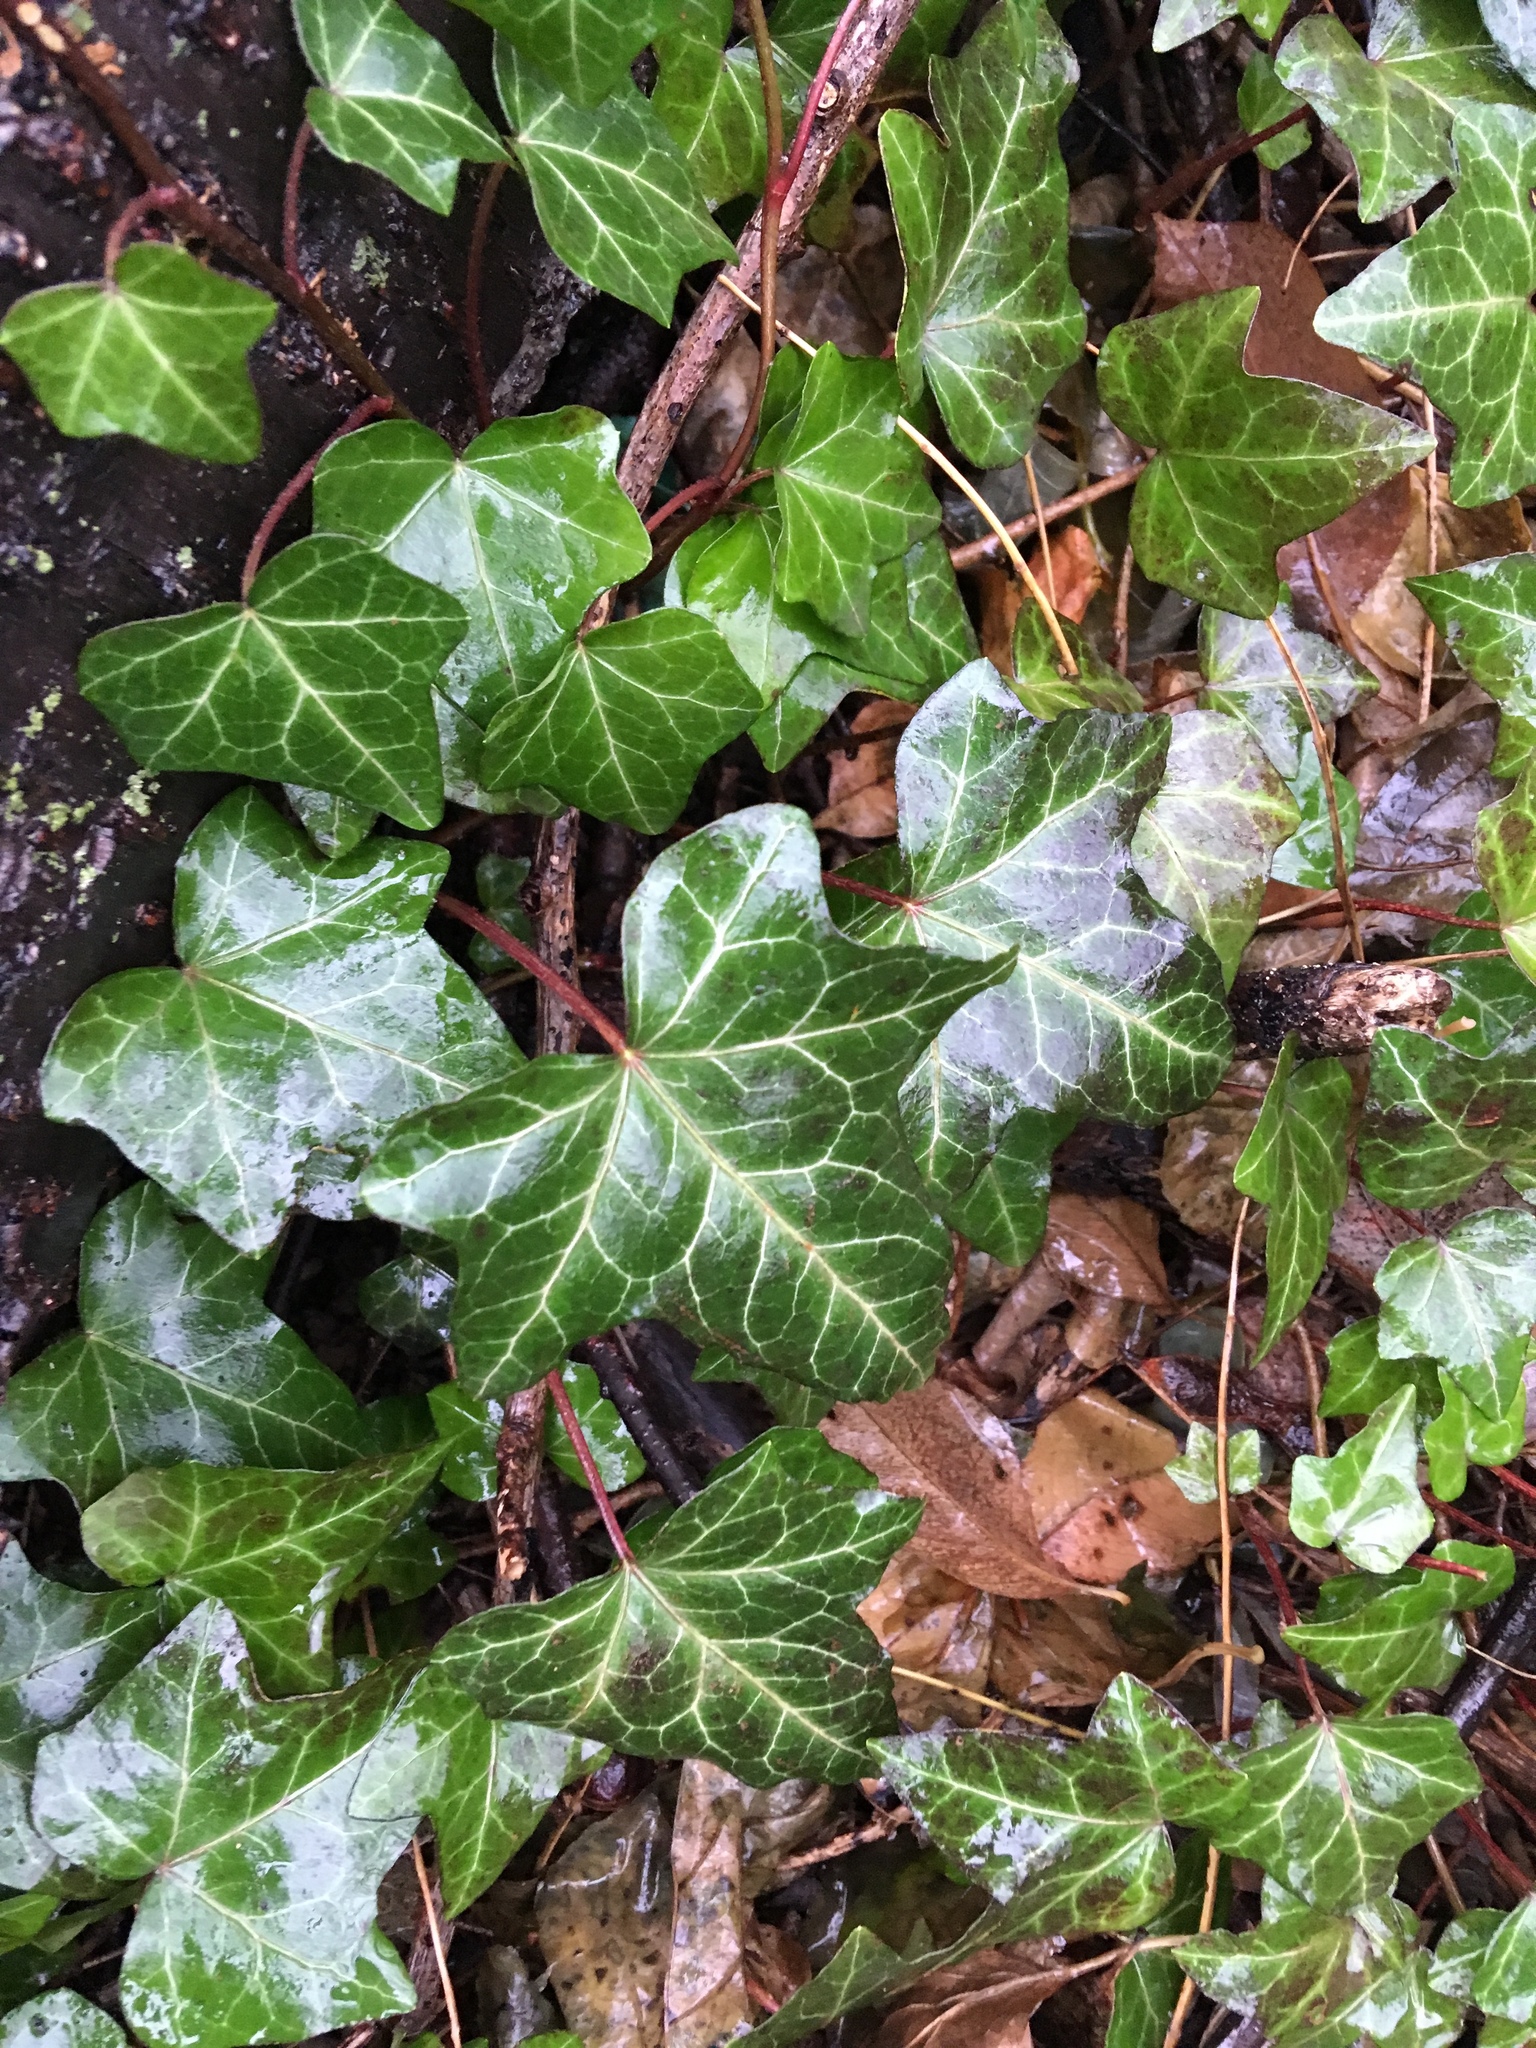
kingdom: Plantae
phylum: Tracheophyta
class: Magnoliopsida
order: Apiales
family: Araliaceae
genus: Hedera
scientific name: Hedera helix
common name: Ivy
